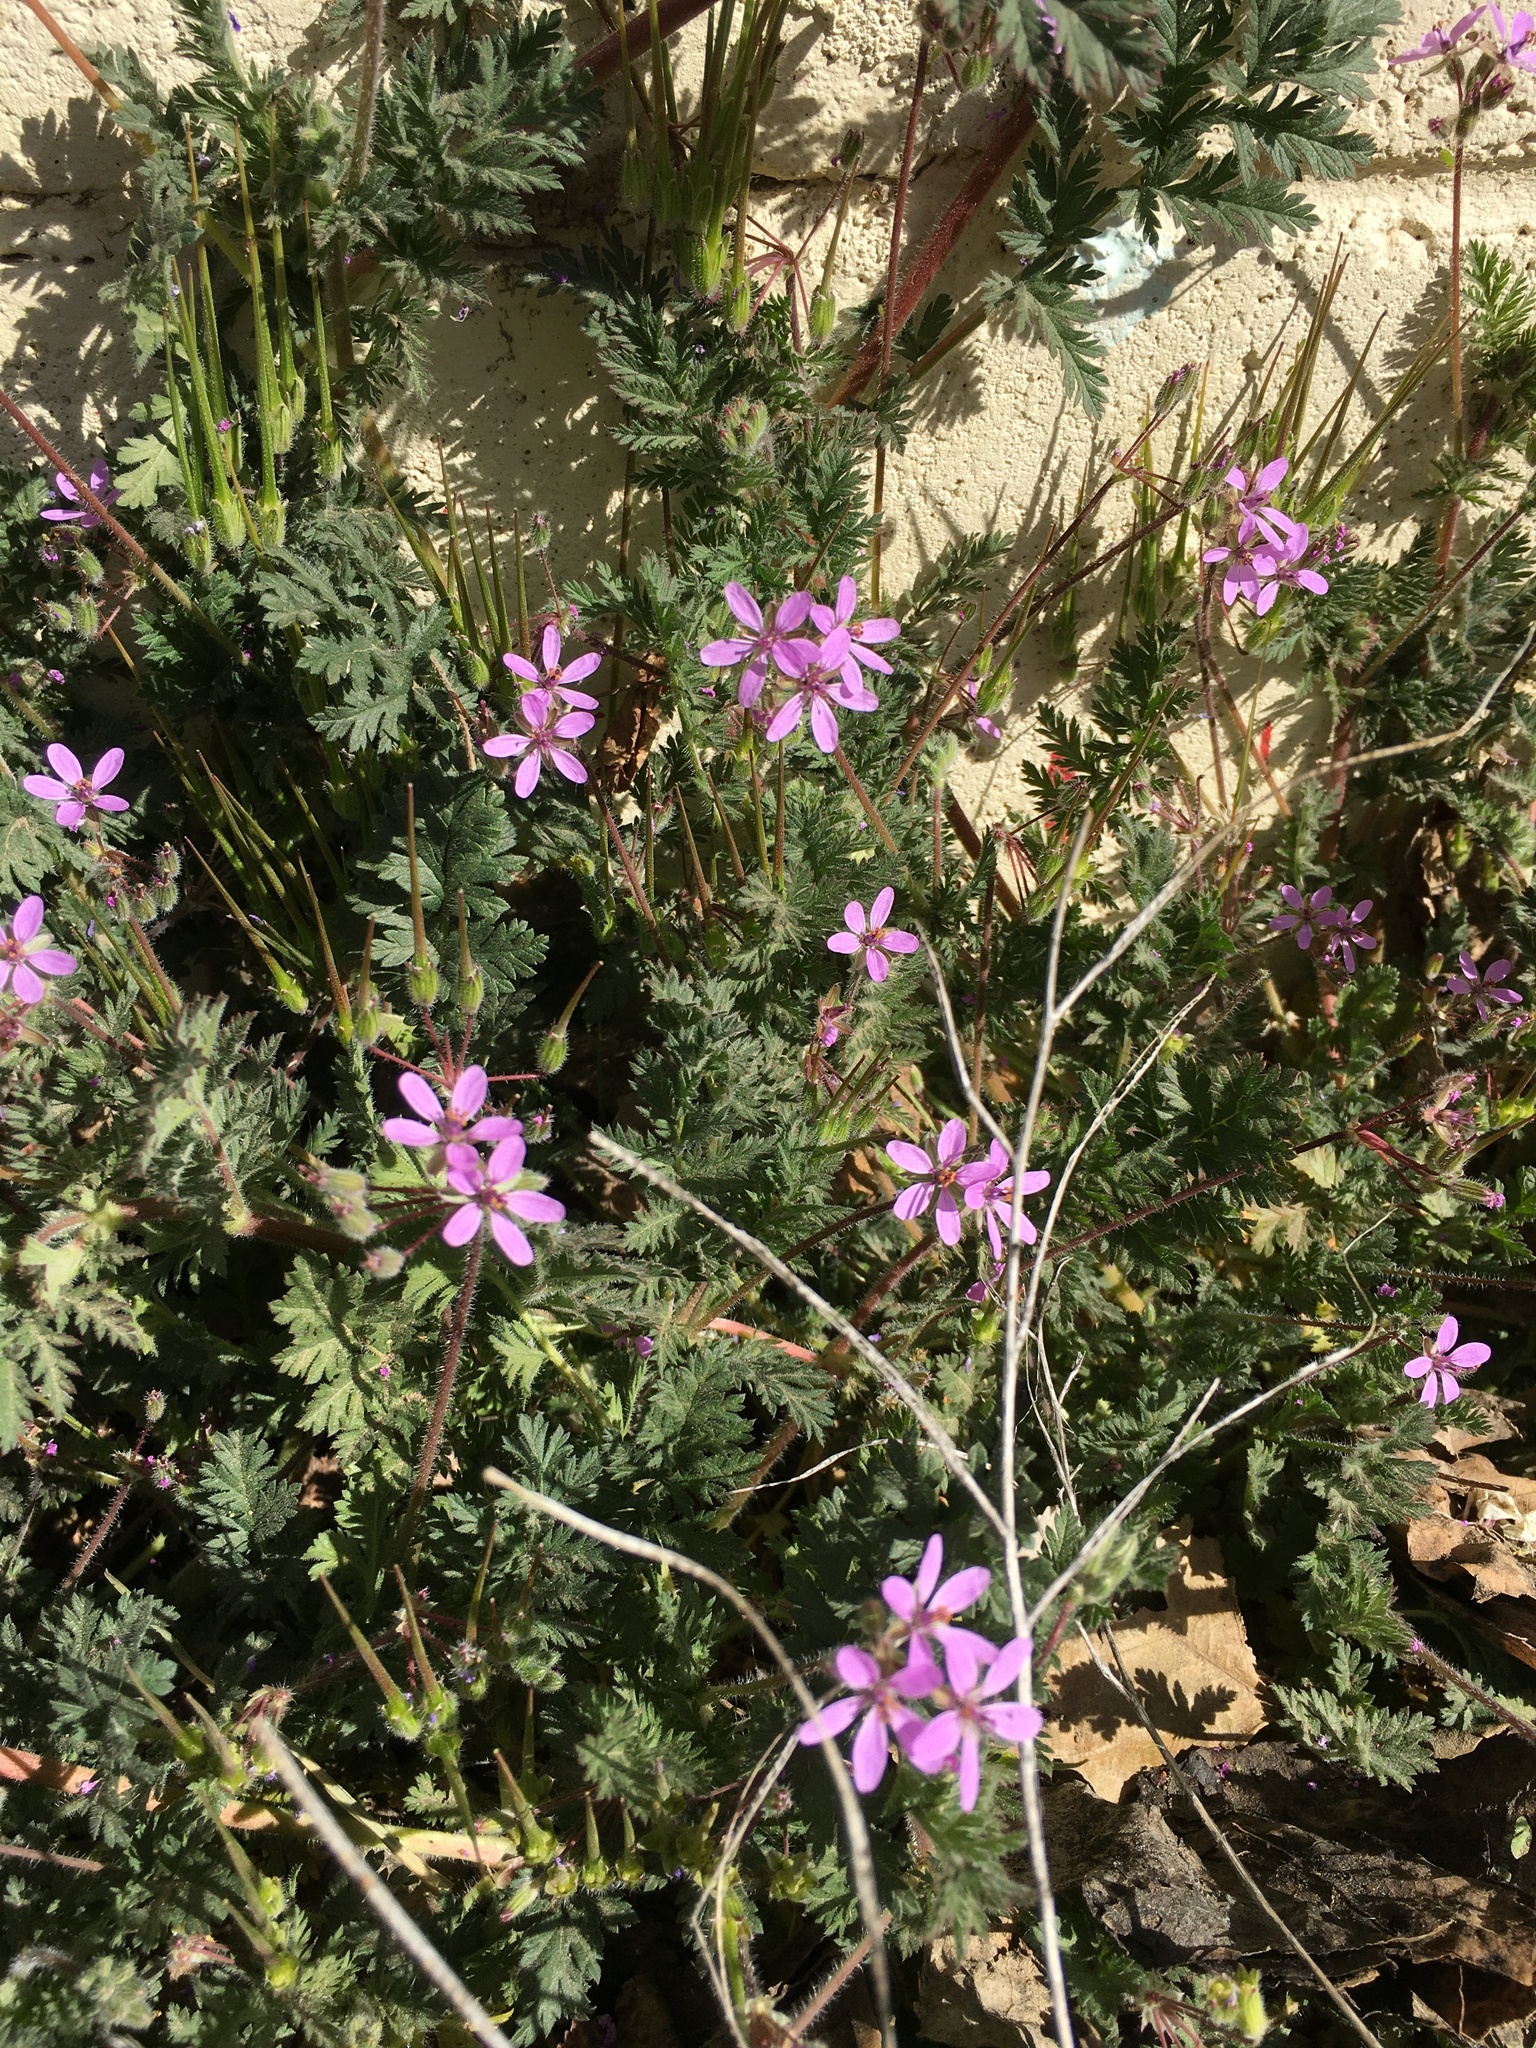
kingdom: Plantae
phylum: Tracheophyta
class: Magnoliopsida
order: Geraniales
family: Geraniaceae
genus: Erodium
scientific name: Erodium cicutarium
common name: Common stork's-bill
